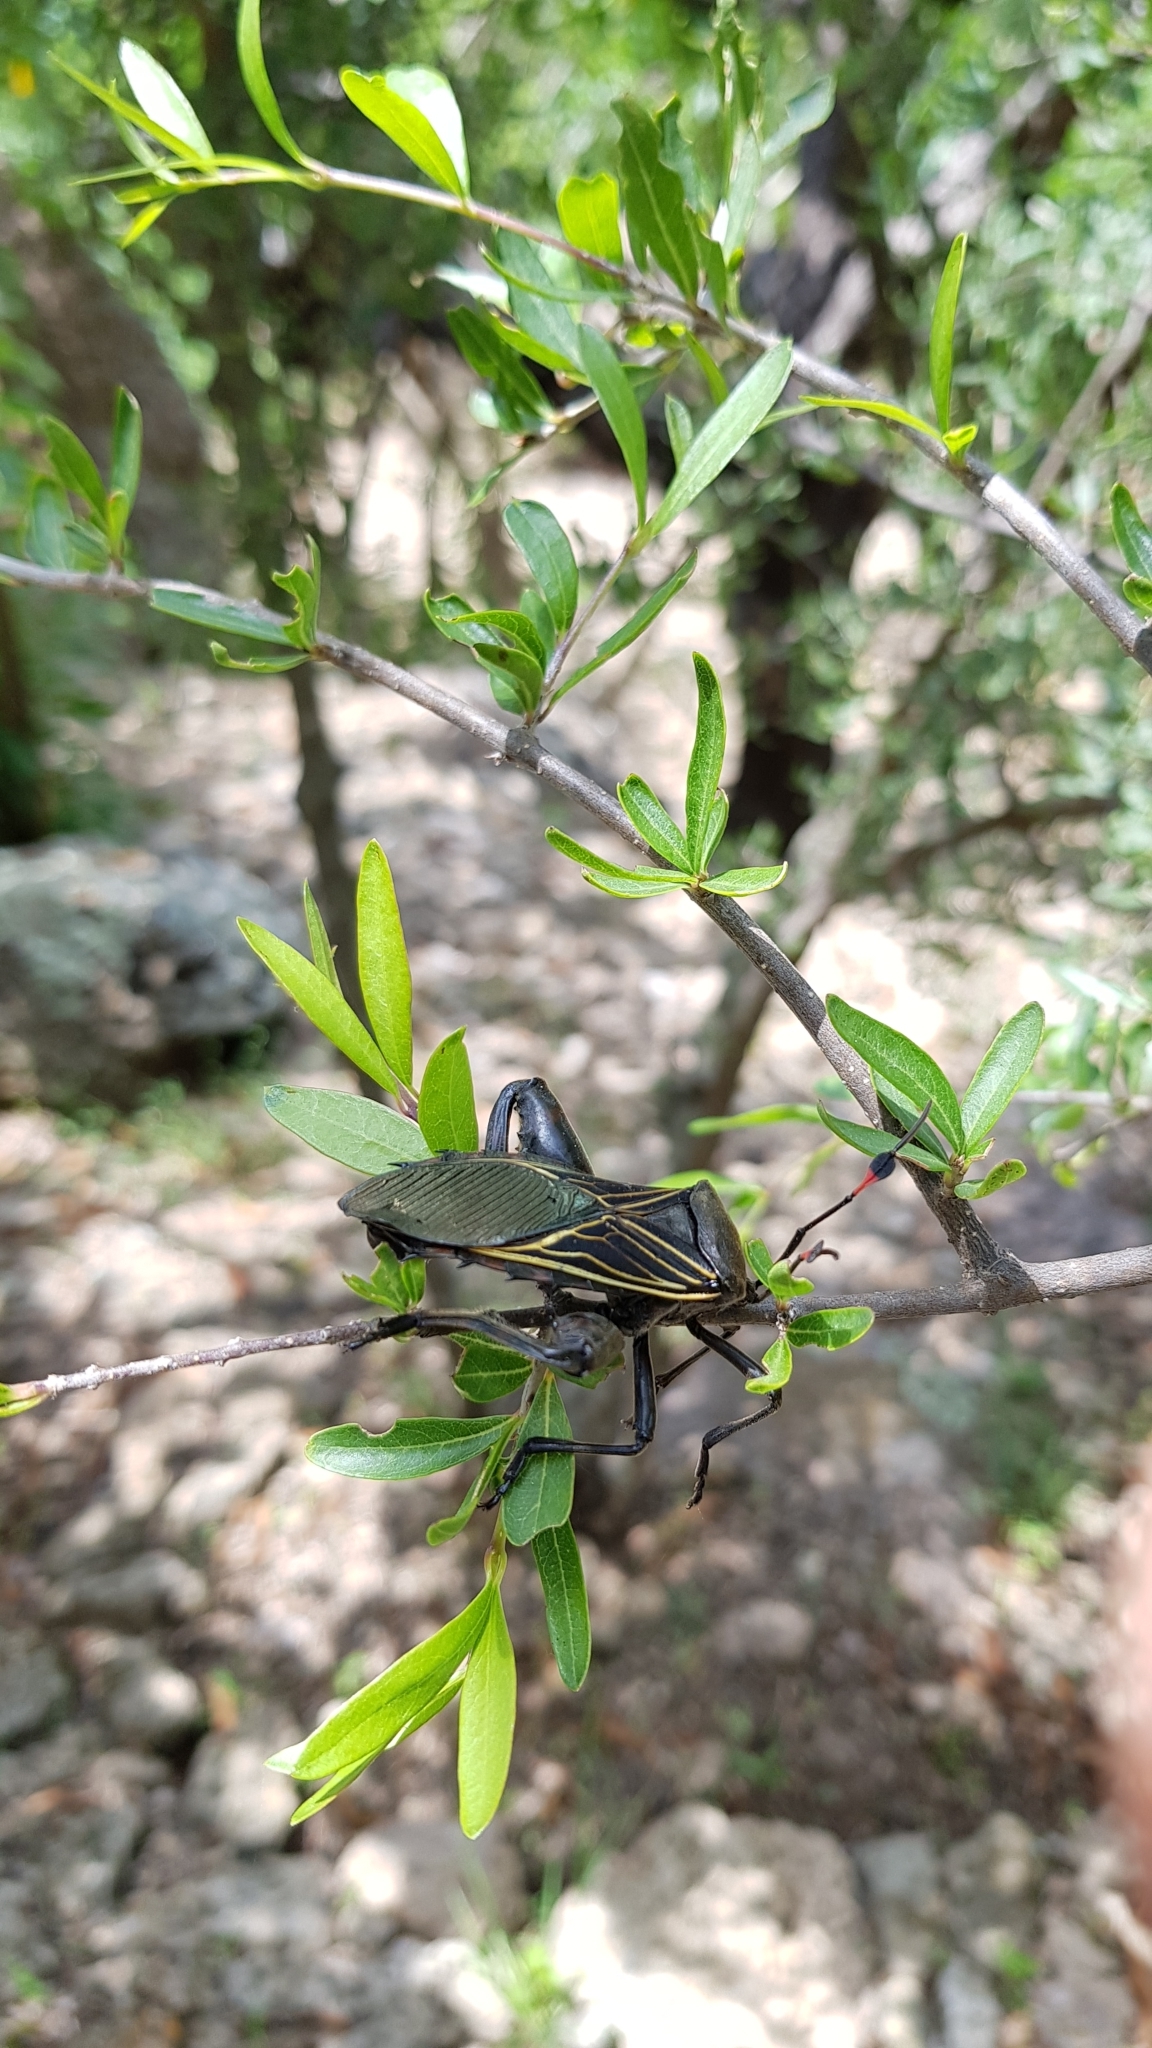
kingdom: Animalia
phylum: Arthropoda
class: Insecta
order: Hemiptera
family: Coreidae
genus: Thasus
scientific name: Thasus
